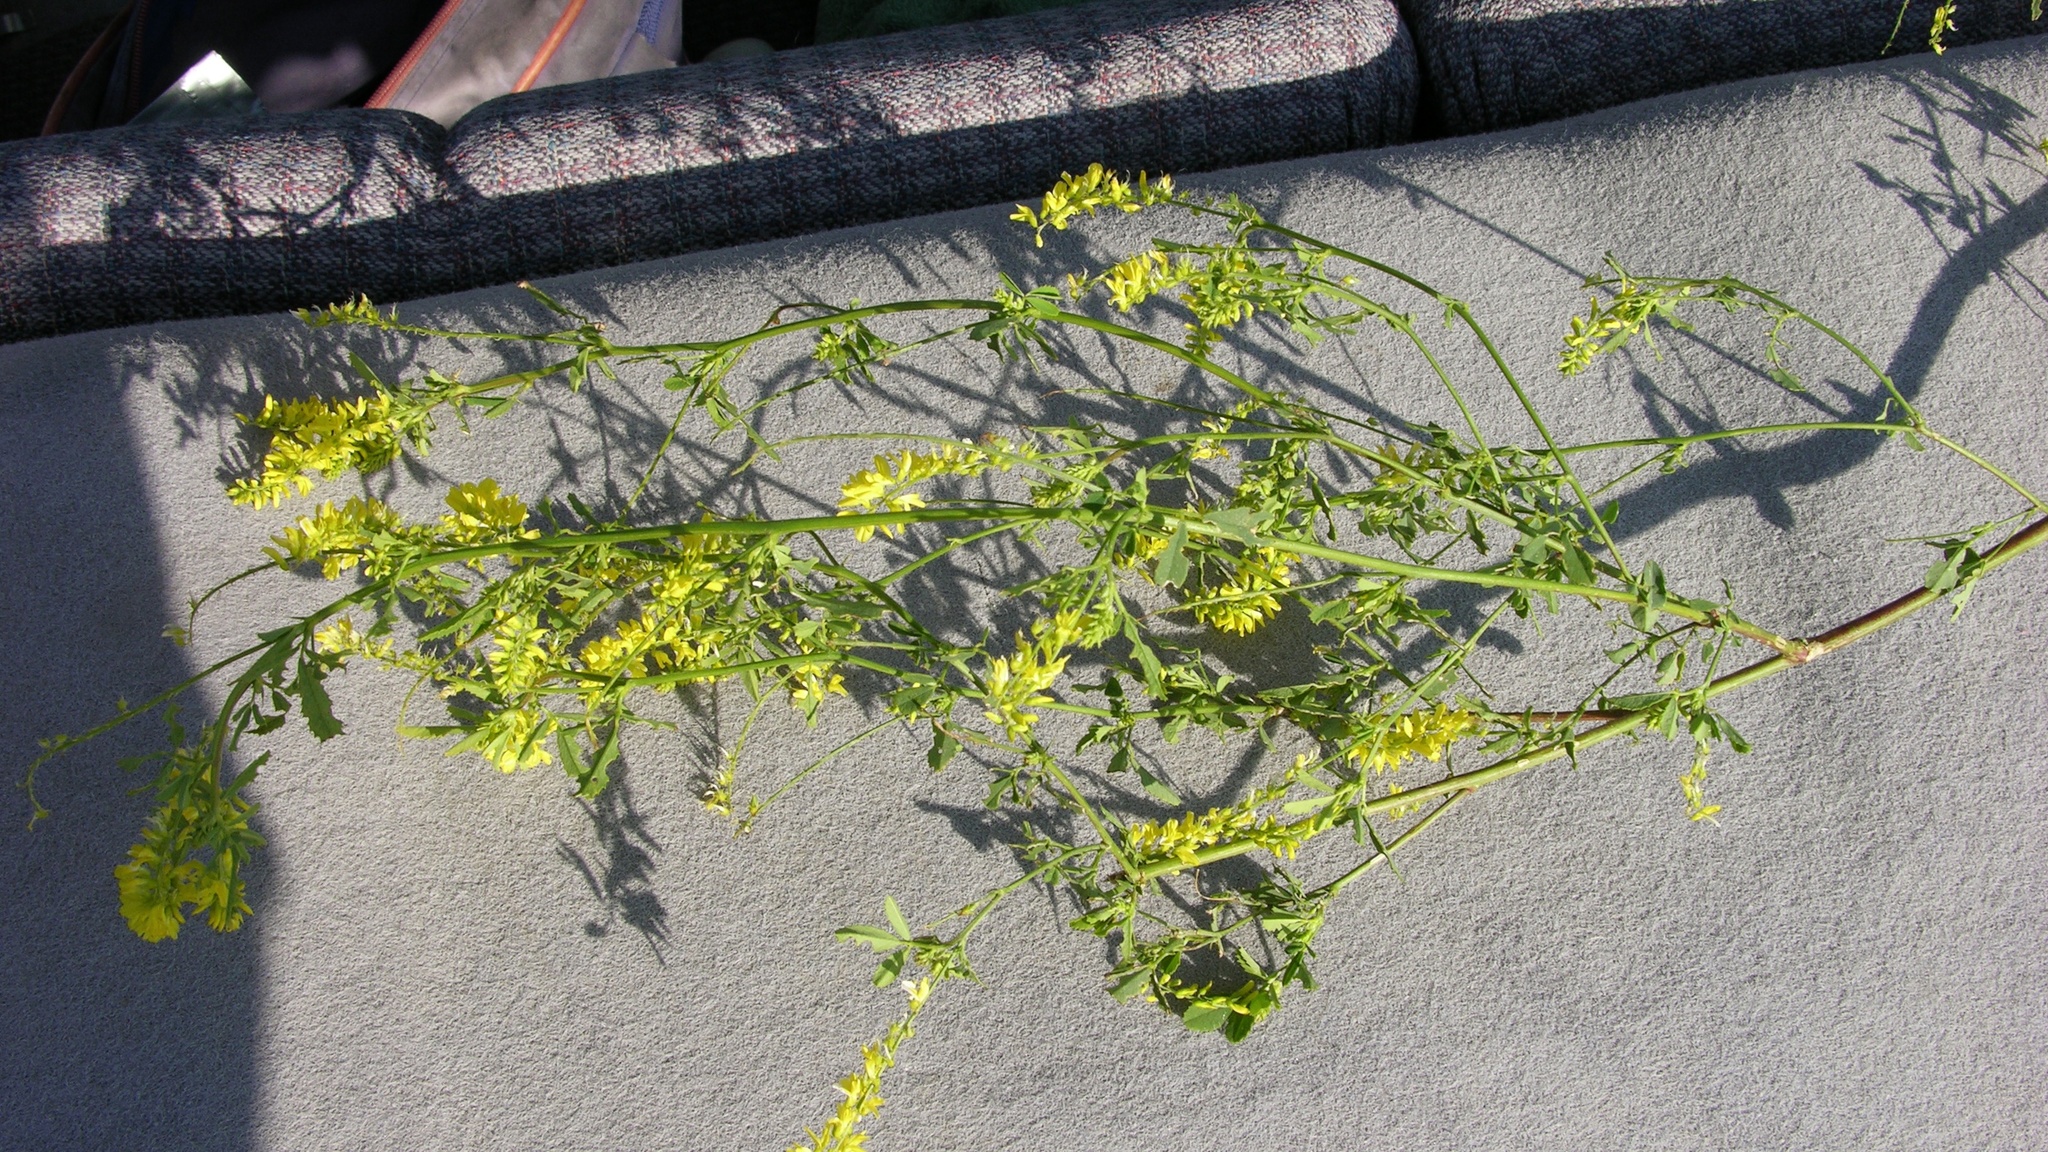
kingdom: Plantae
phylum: Tracheophyta
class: Magnoliopsida
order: Fabales
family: Fabaceae
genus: Melilotus
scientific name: Melilotus officinalis
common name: Sweetclover
